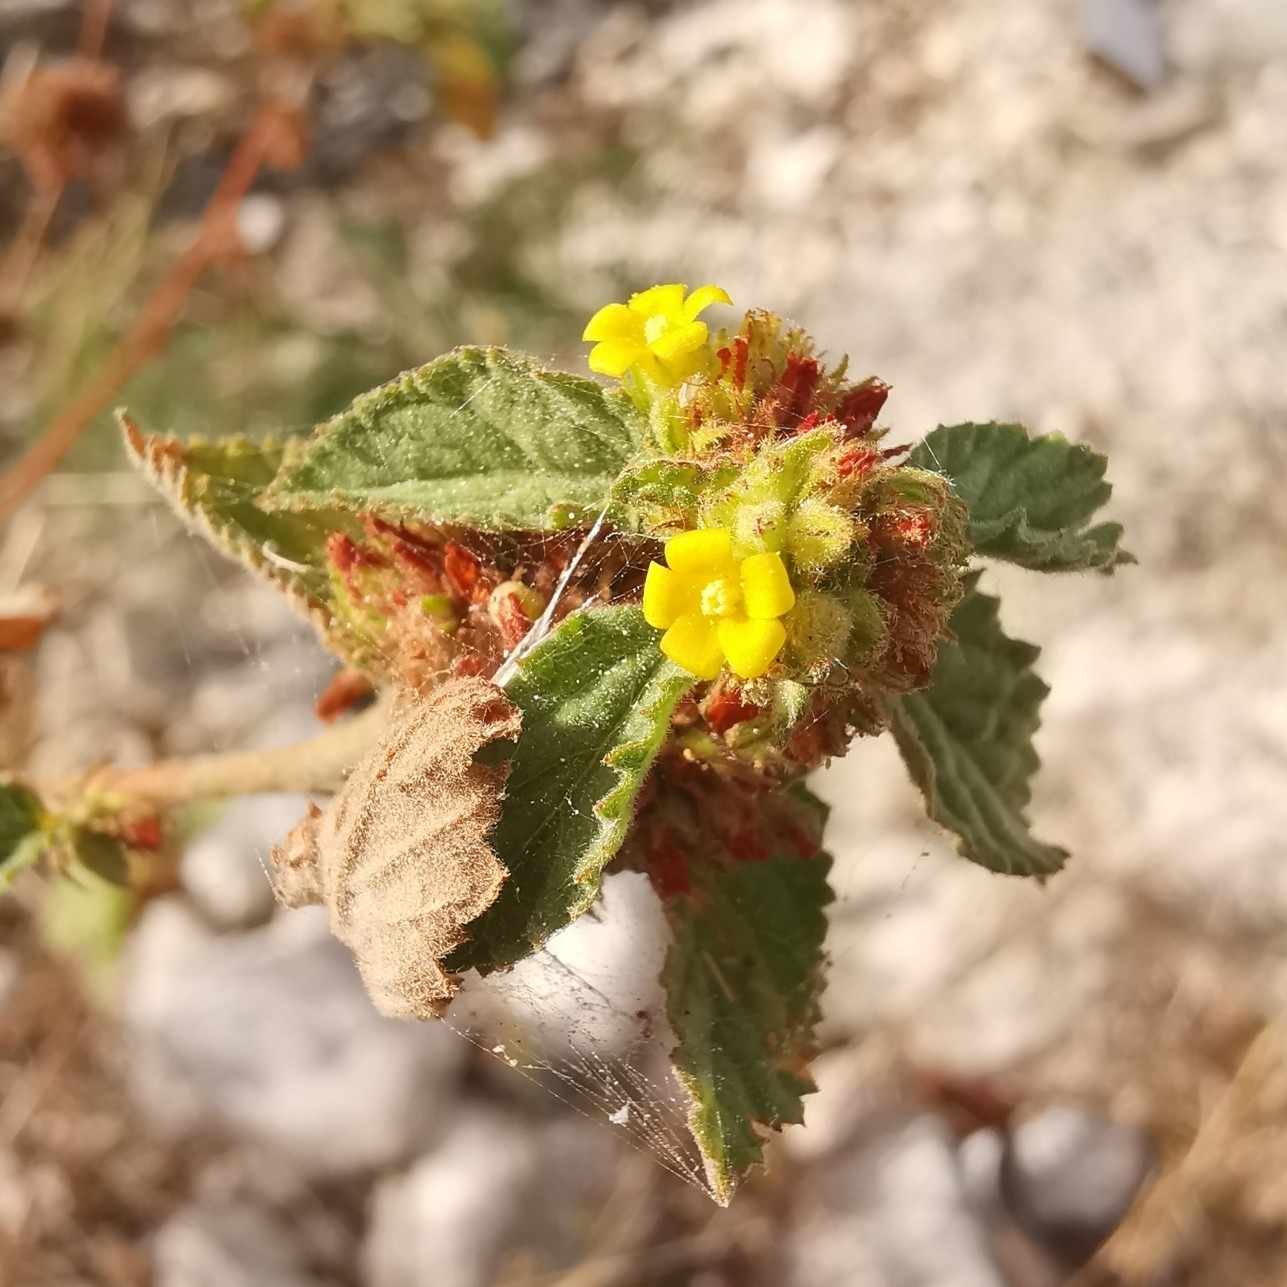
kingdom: Plantae
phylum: Tracheophyta
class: Magnoliopsida
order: Malvales
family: Malvaceae
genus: Waltheria
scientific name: Waltheria indica
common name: Leather-coat
